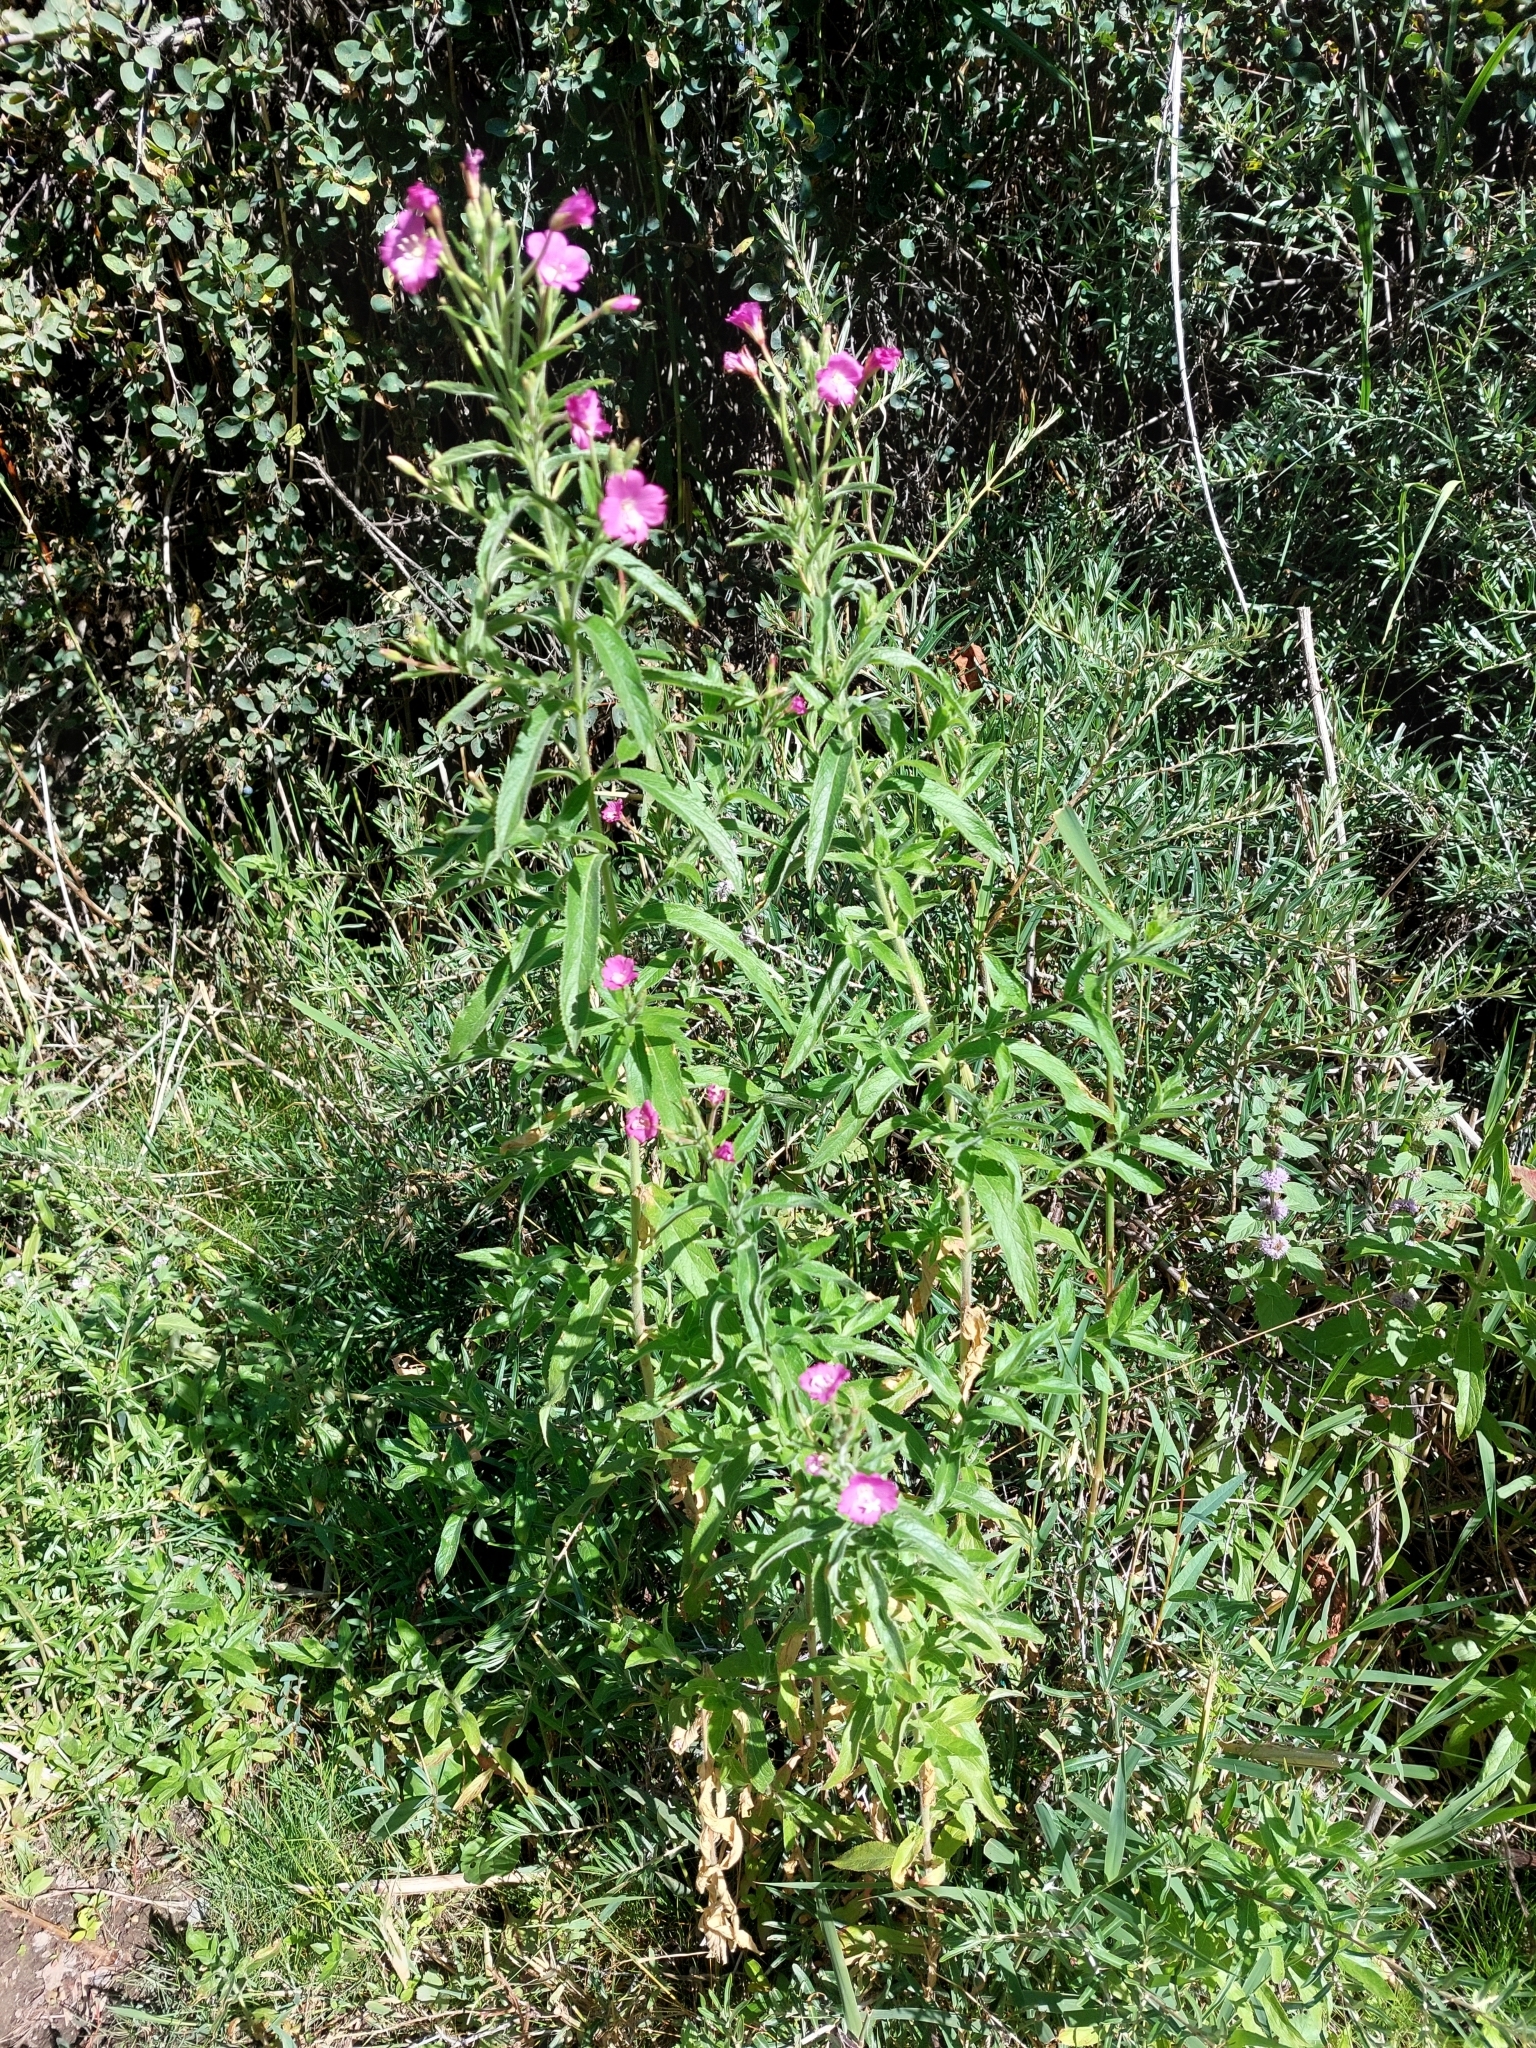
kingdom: Plantae
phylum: Tracheophyta
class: Magnoliopsida
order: Myrtales
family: Onagraceae
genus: Epilobium
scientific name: Epilobium hirsutum
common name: Great willowherb
